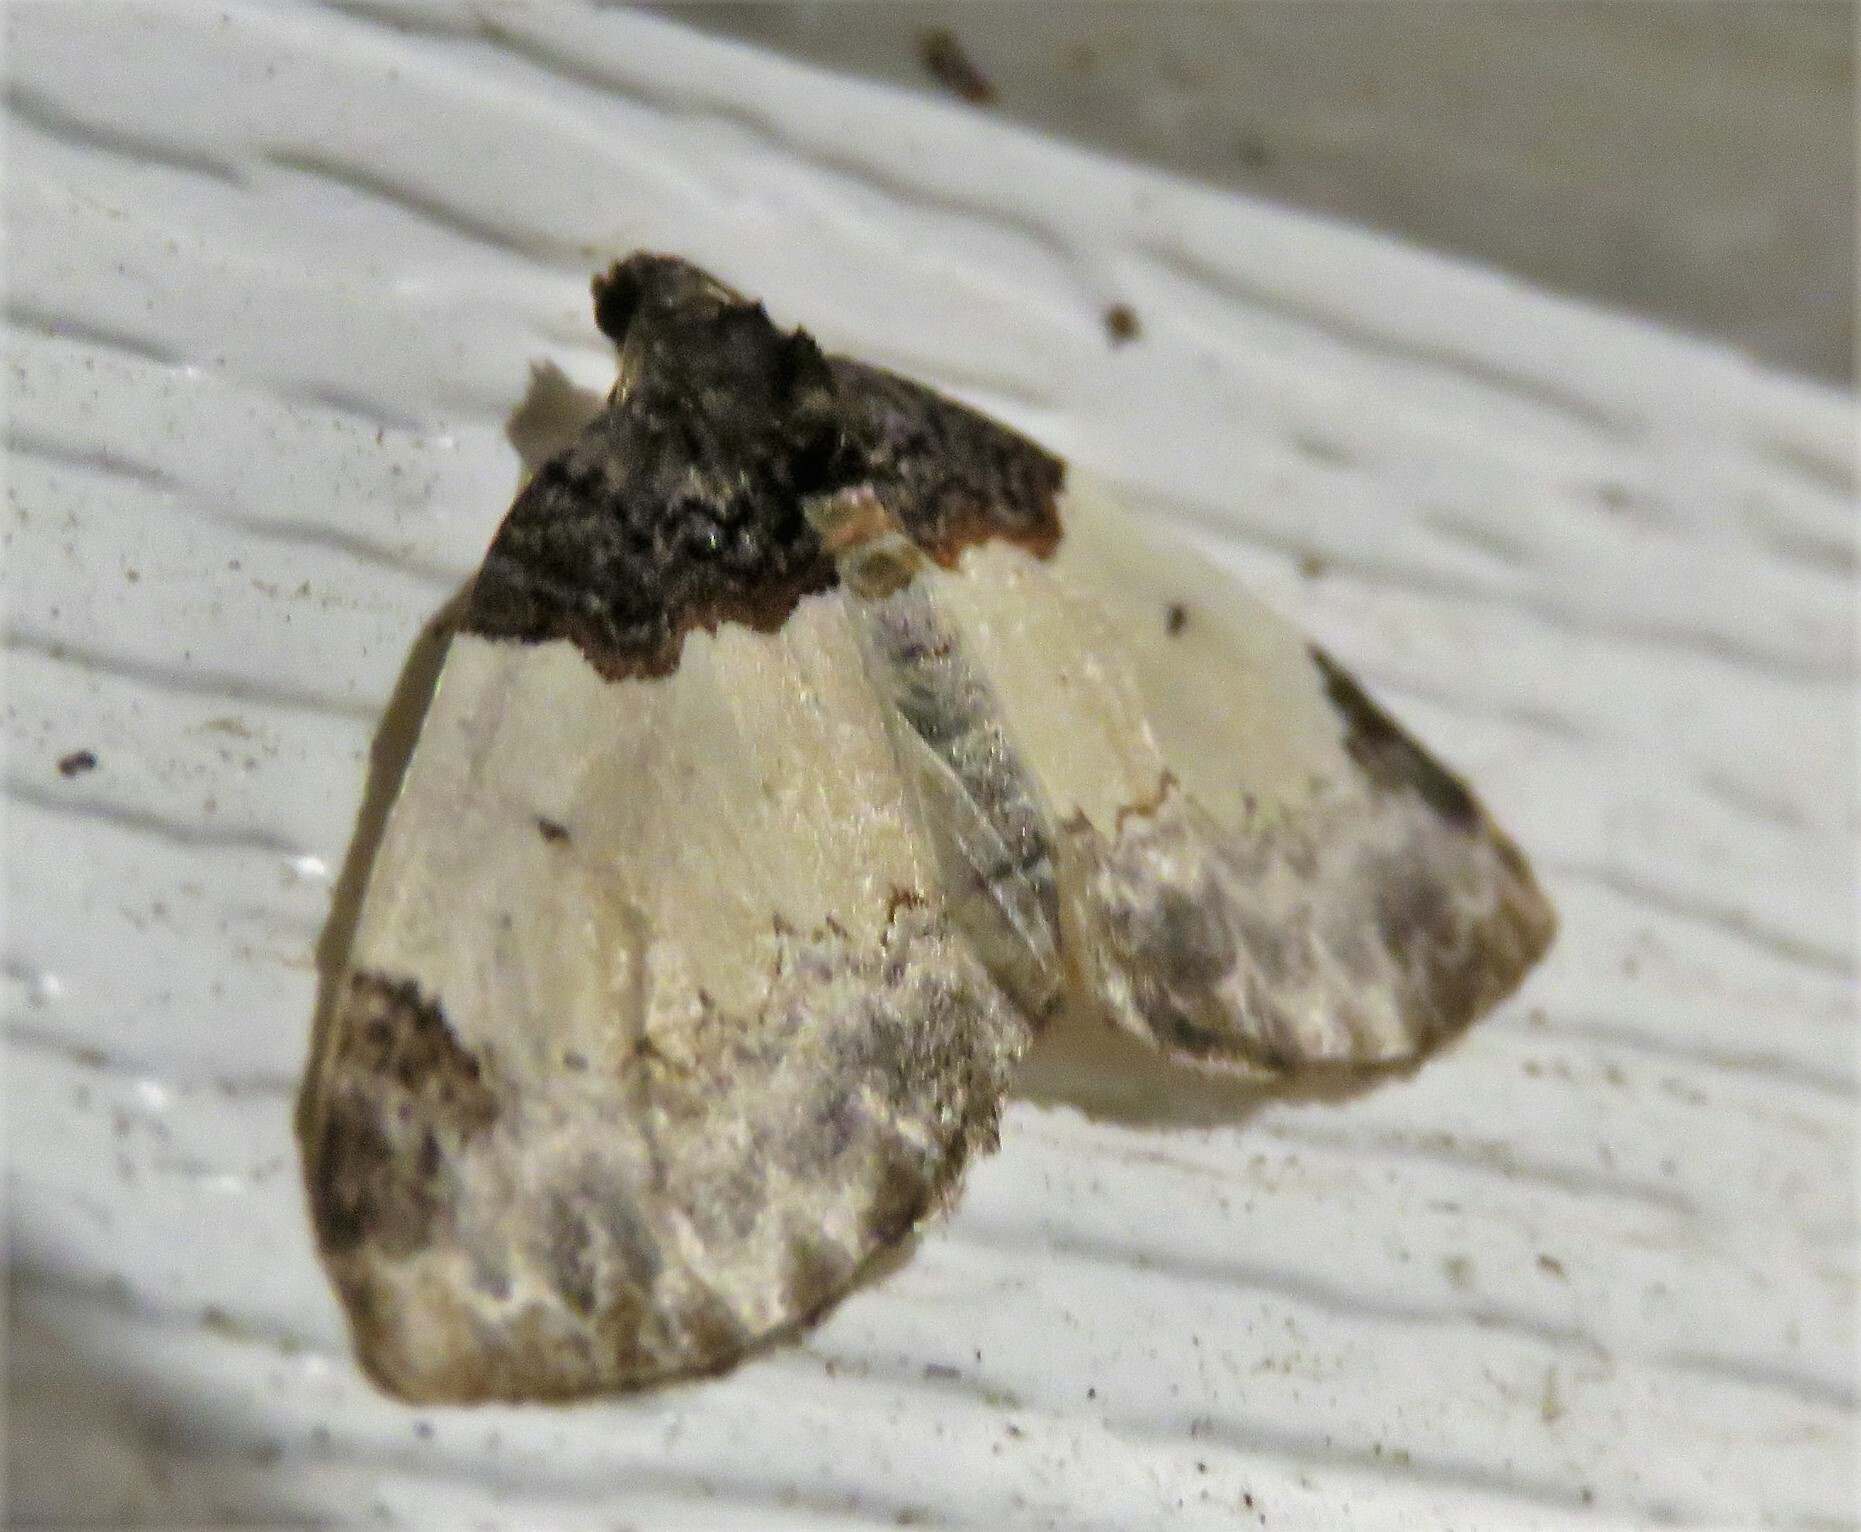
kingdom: Animalia
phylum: Arthropoda
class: Insecta
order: Lepidoptera
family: Geometridae
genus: Mesoleuca
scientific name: Mesoleuca ruficillata
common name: White-ribboned carpet moth
